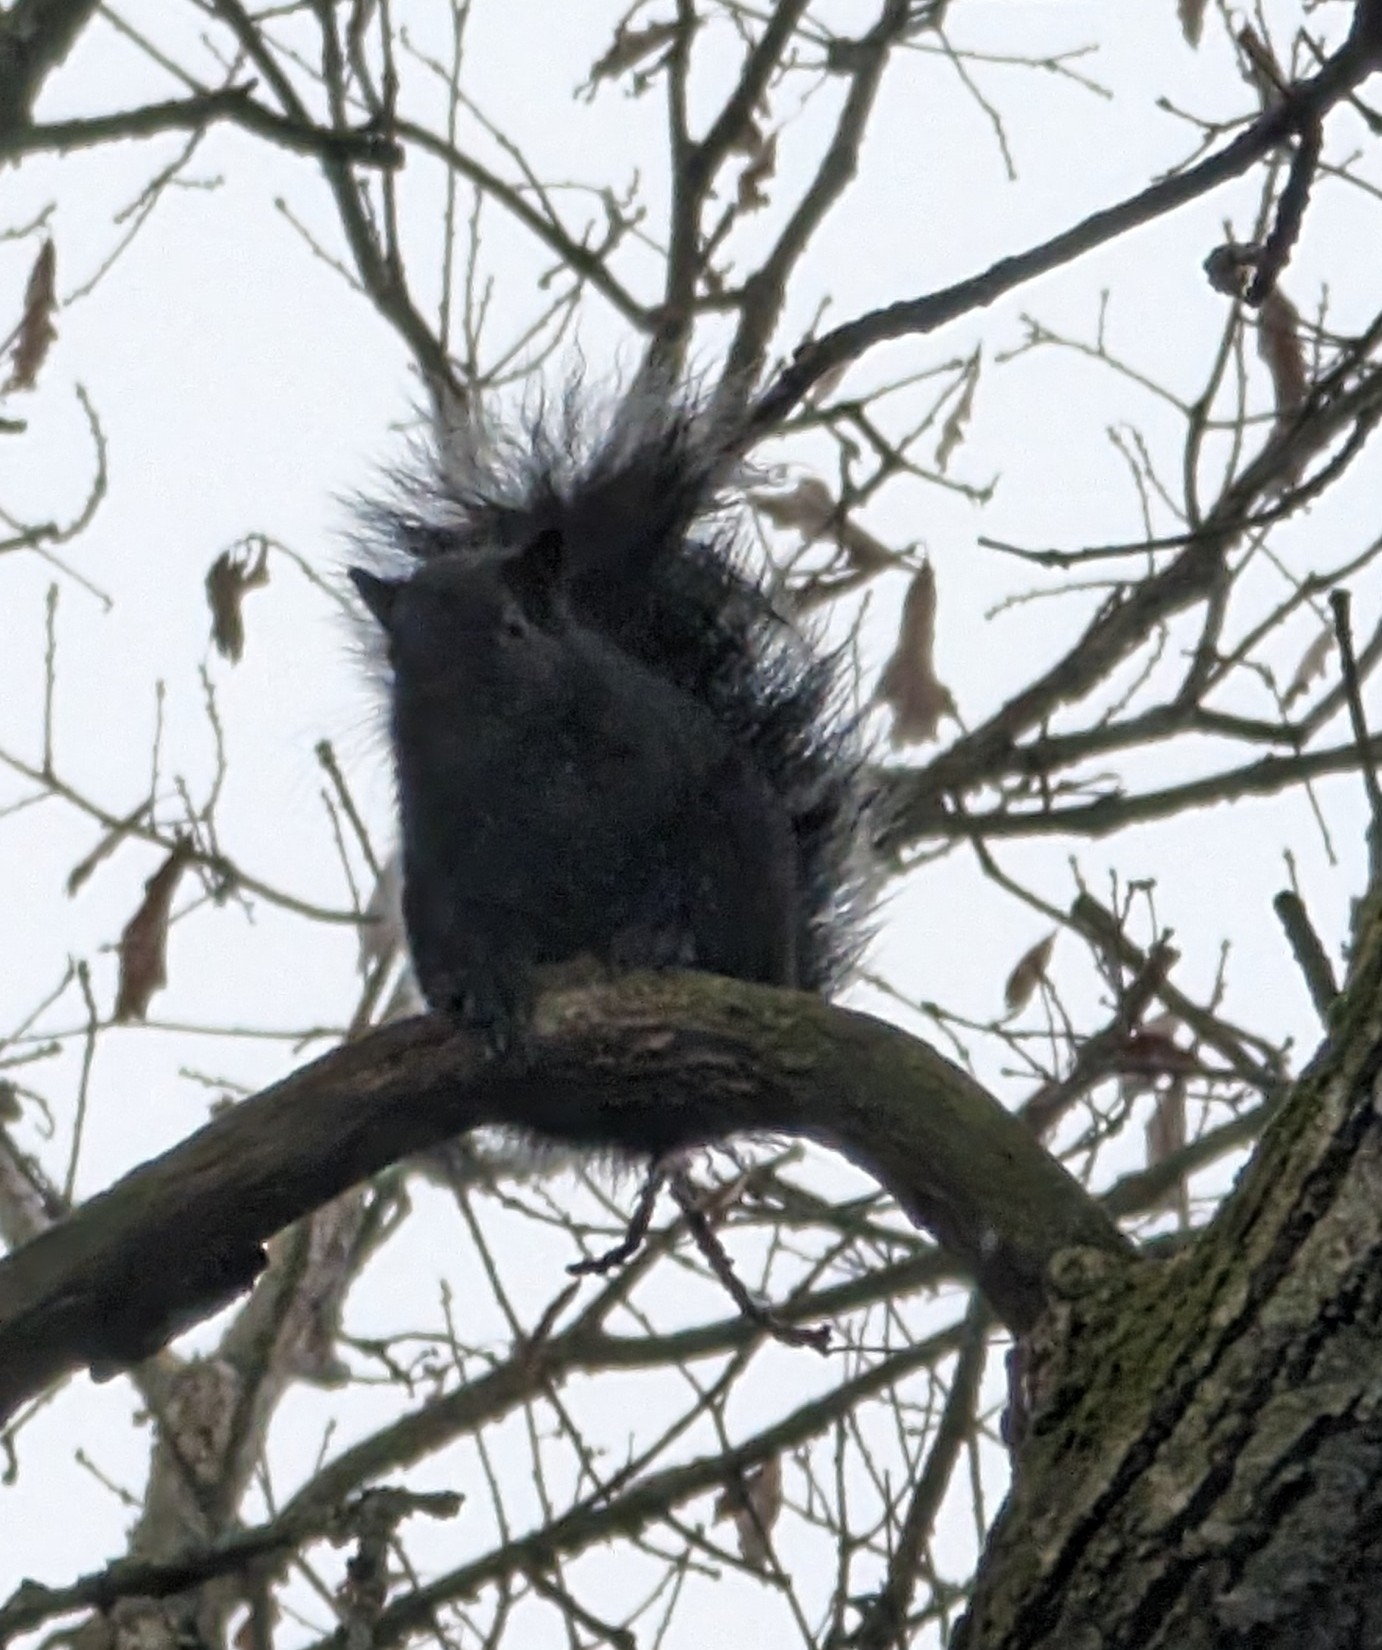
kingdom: Animalia
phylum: Chordata
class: Mammalia
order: Rodentia
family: Sciuridae
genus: Sciurus
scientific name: Sciurus carolinensis
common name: Eastern gray squirrel
